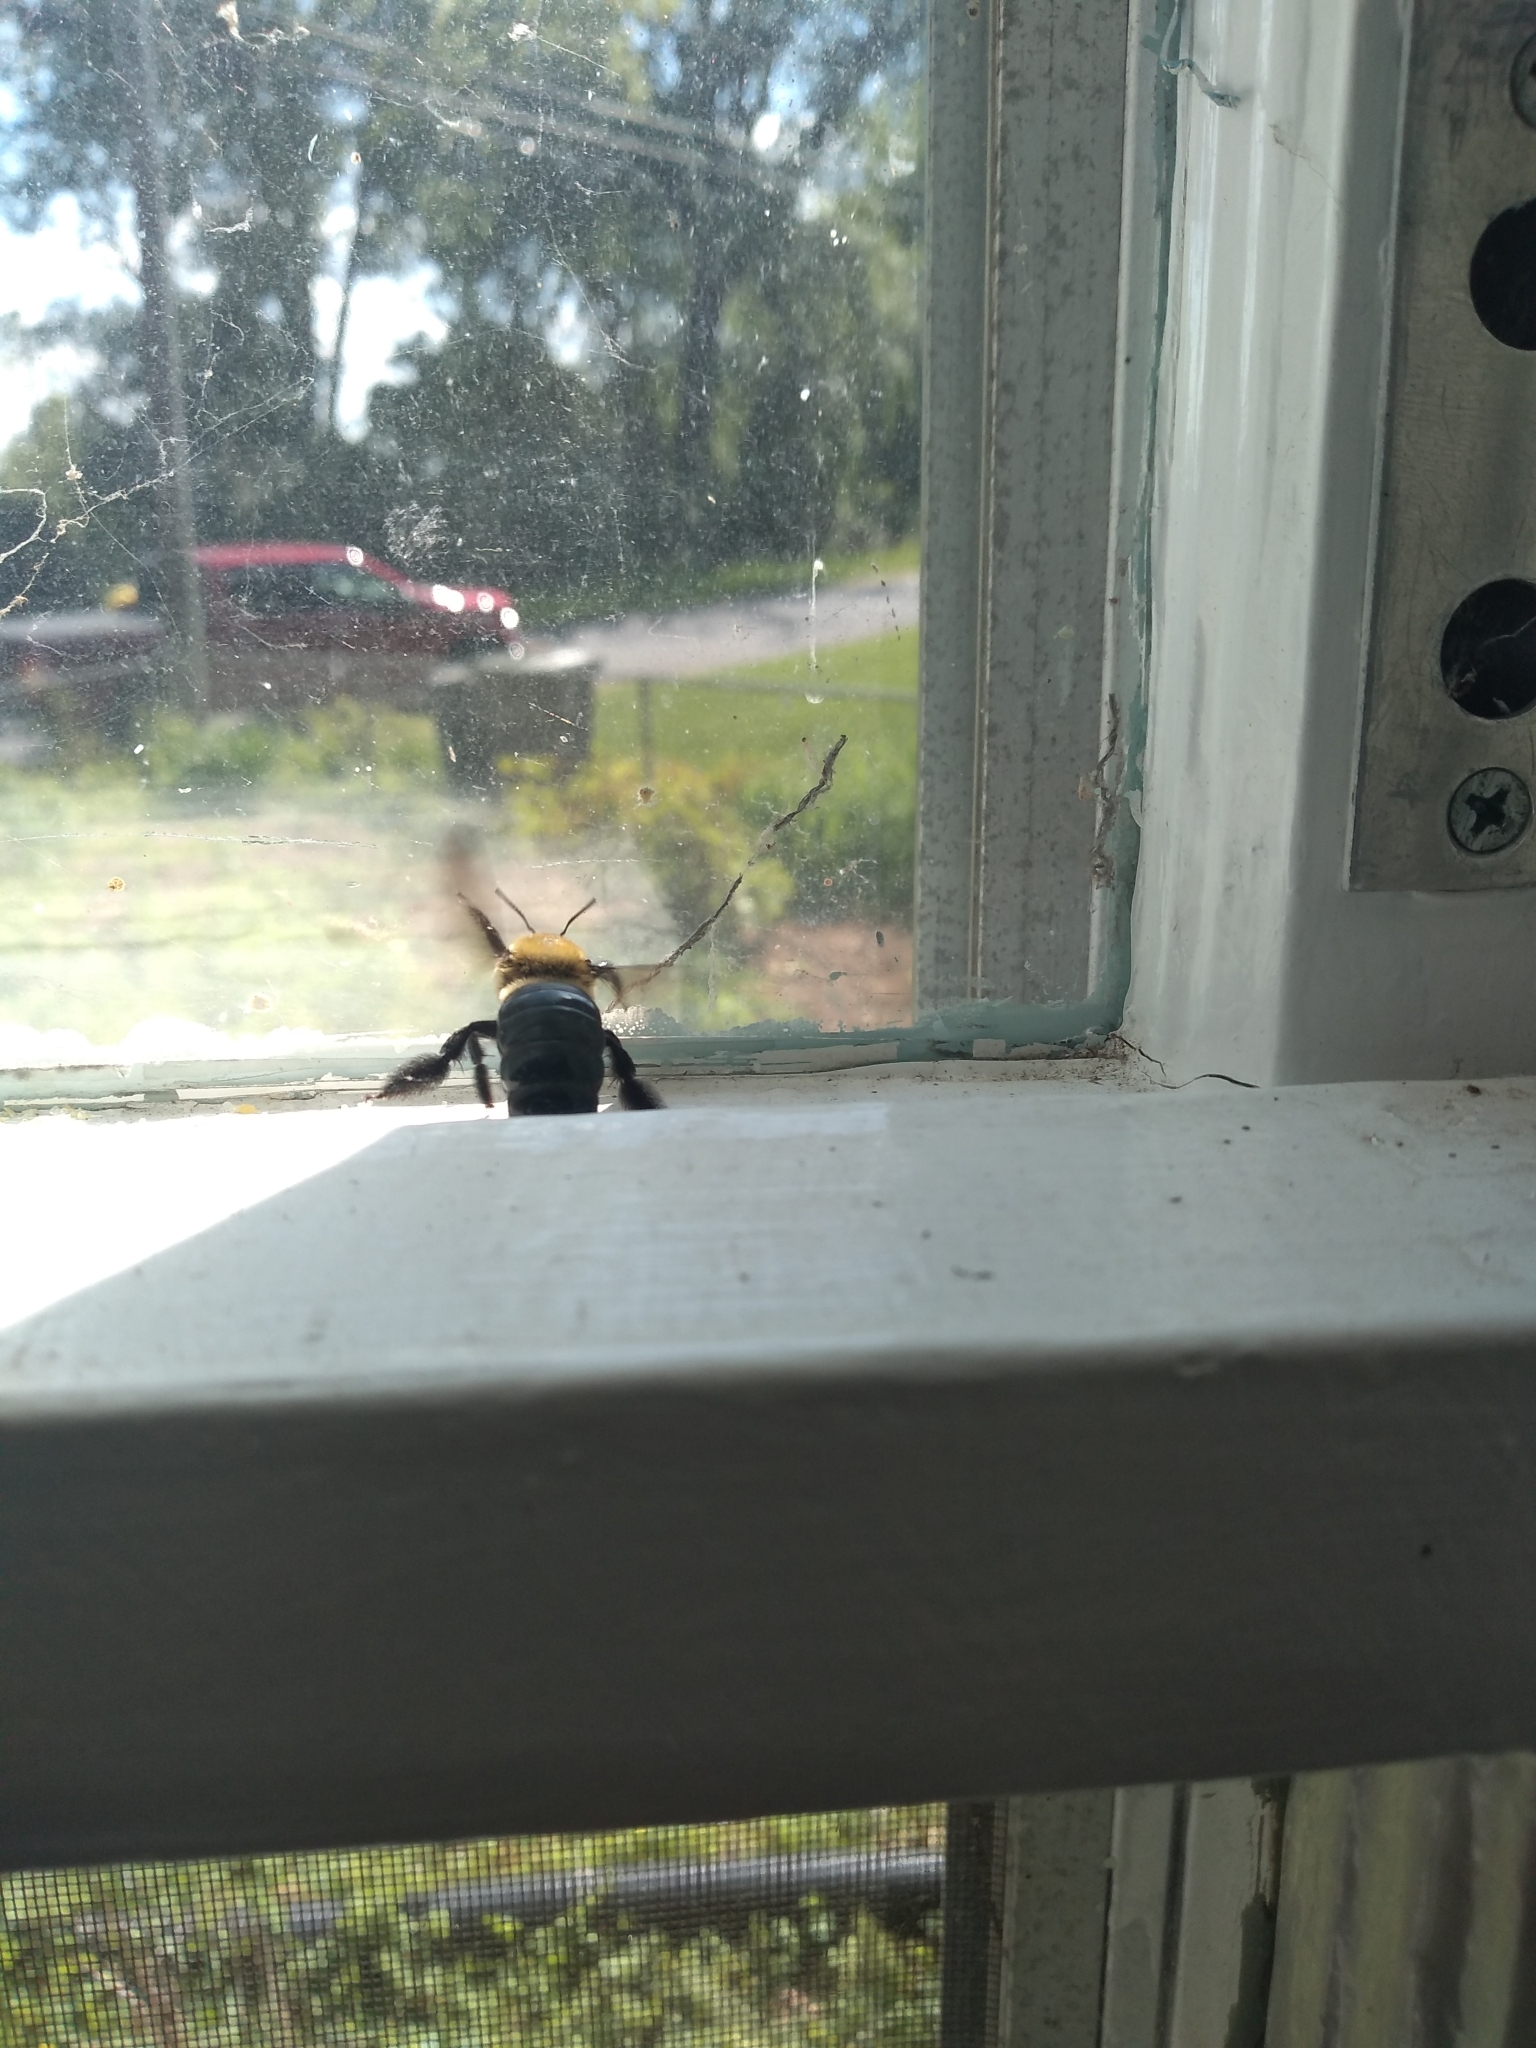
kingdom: Animalia
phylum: Arthropoda
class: Insecta
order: Hymenoptera
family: Apidae
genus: Xylocopa
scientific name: Xylocopa virginica
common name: Carpenter bee
